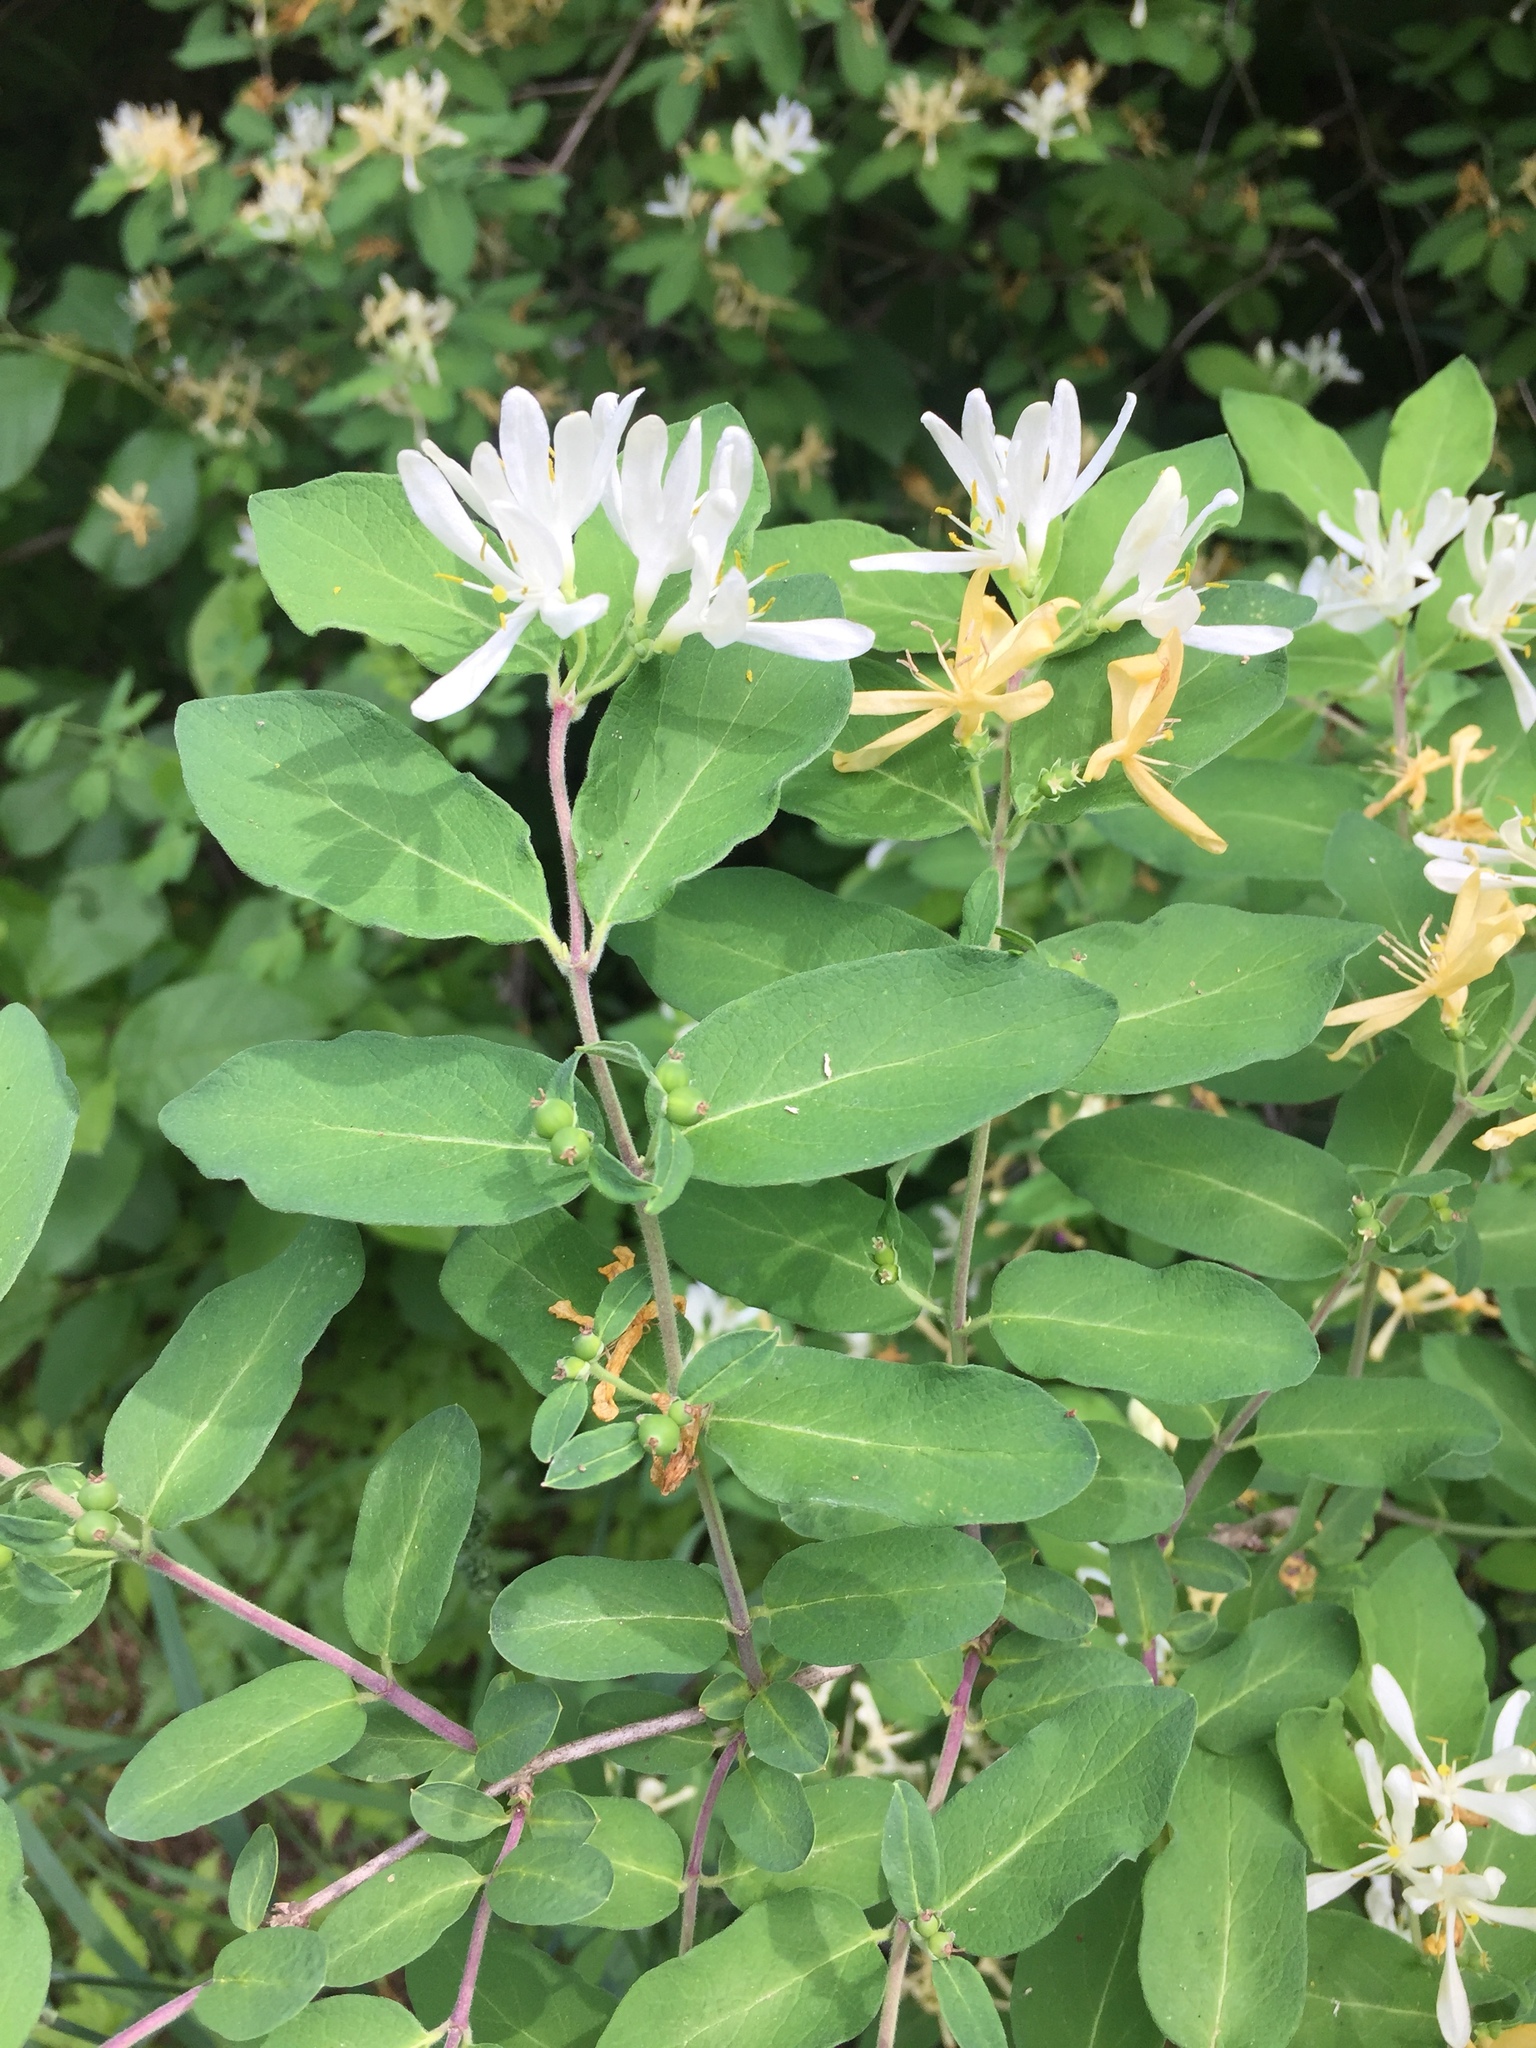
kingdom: Plantae
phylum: Tracheophyta
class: Magnoliopsida
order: Dipsacales
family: Caprifoliaceae
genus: Lonicera
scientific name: Lonicera morrowii
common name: Morrow's honeysuckle
